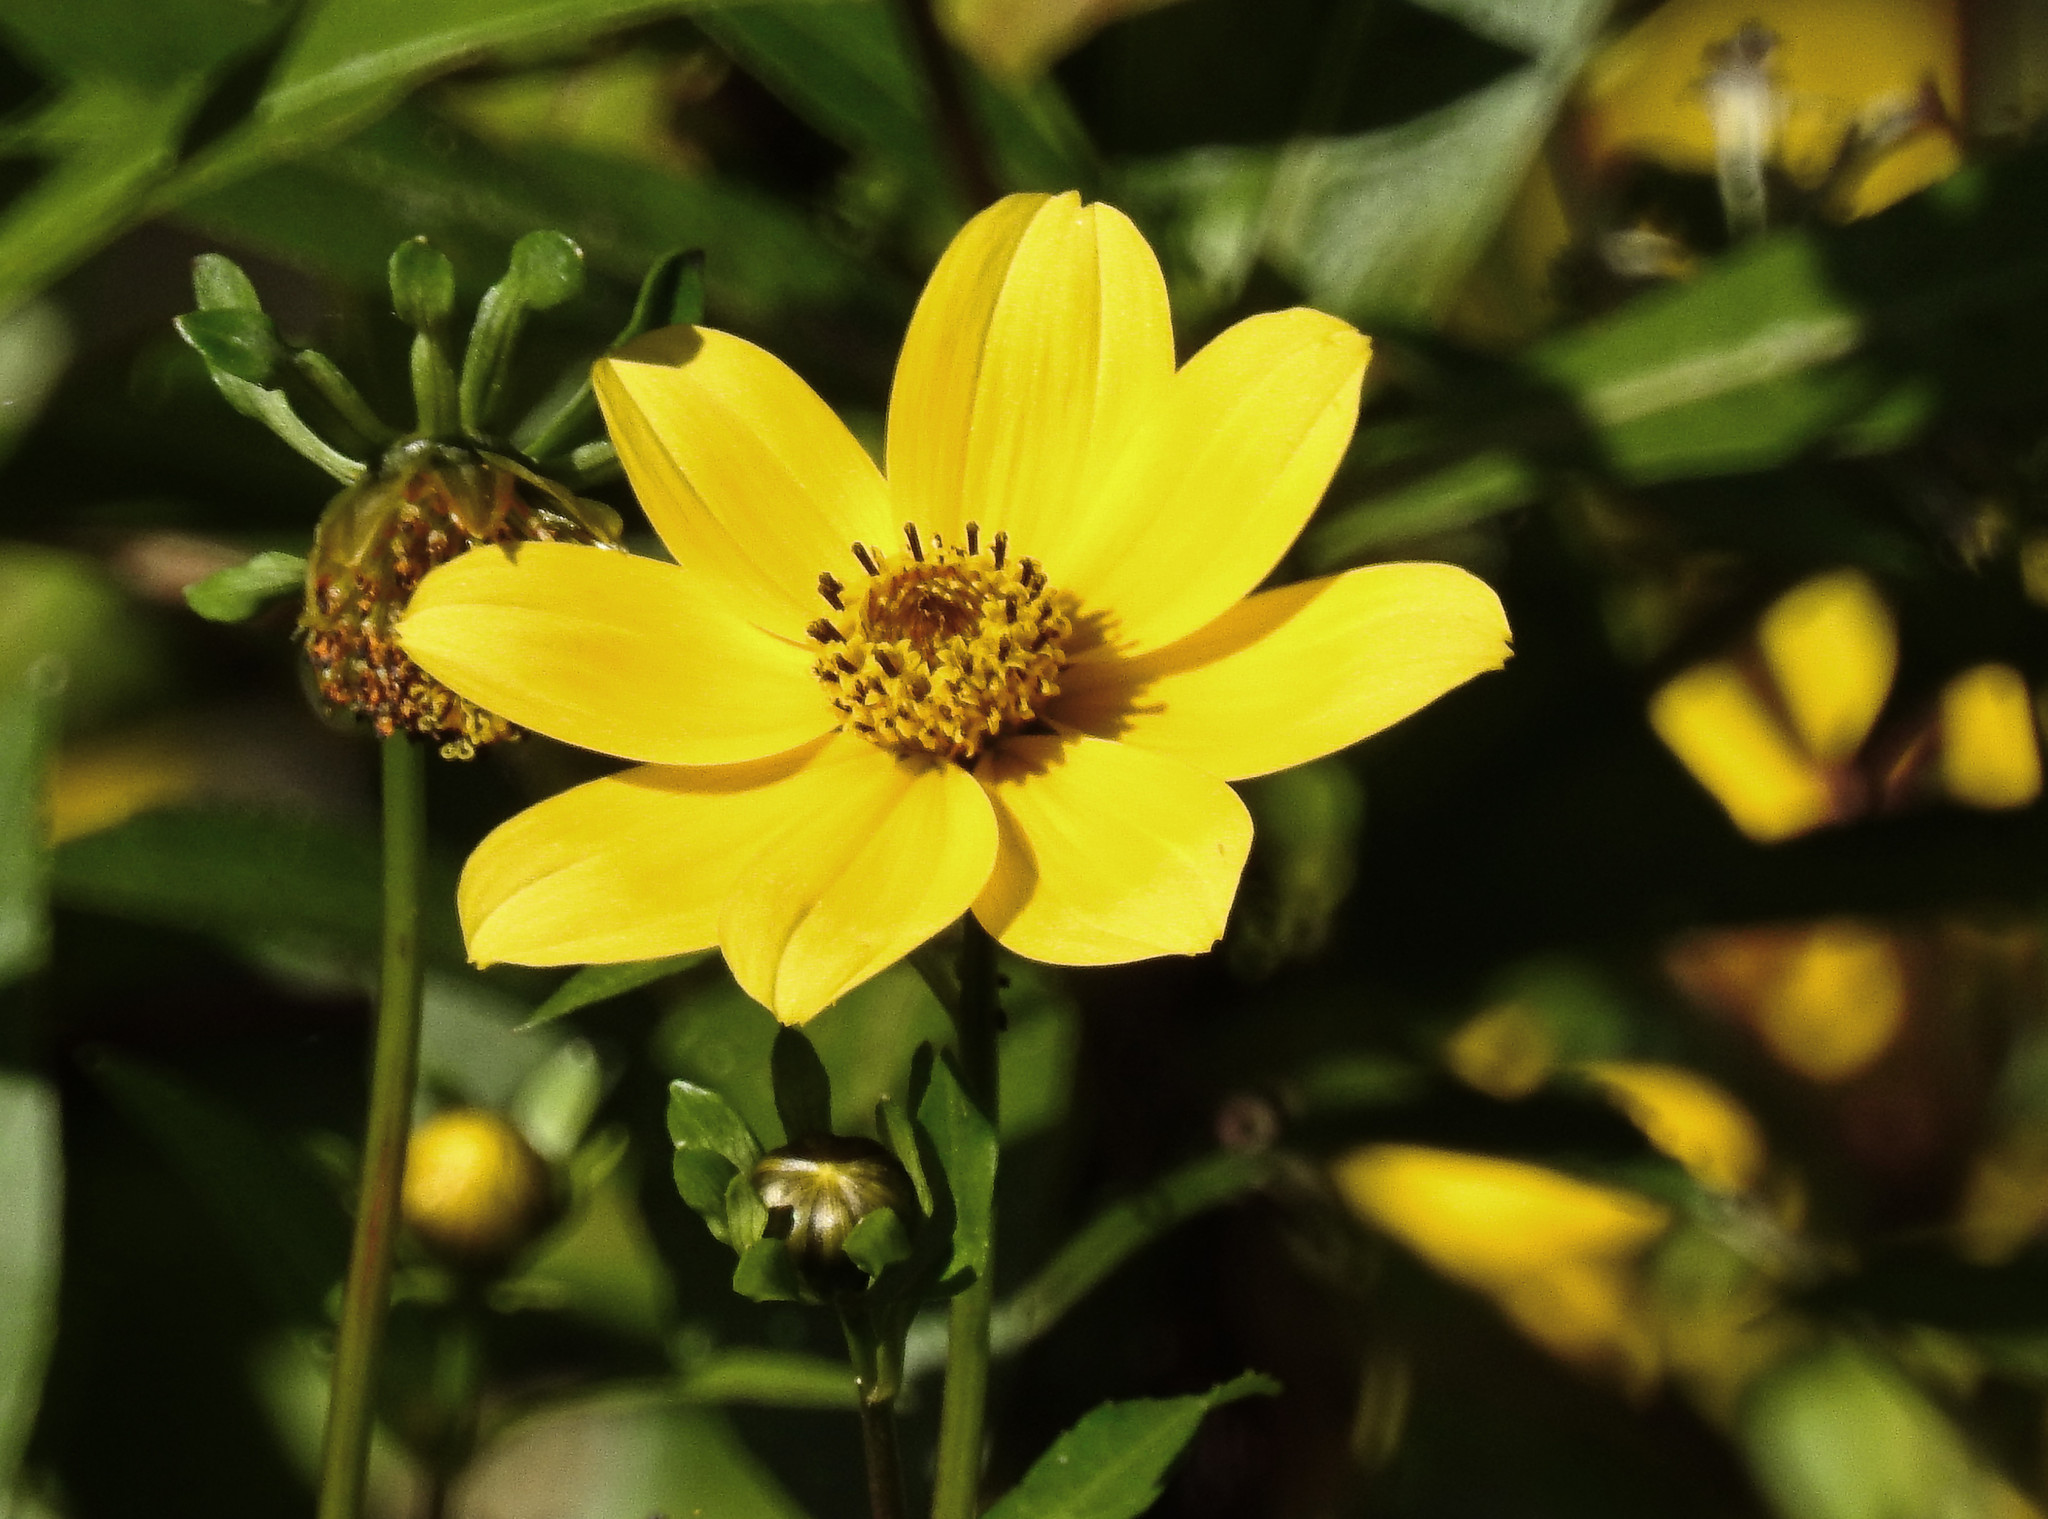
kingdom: Plantae
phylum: Tracheophyta
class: Magnoliopsida
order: Asterales
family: Asteraceae
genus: Bidens
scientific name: Bidens aristosa
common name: Western tickseed
